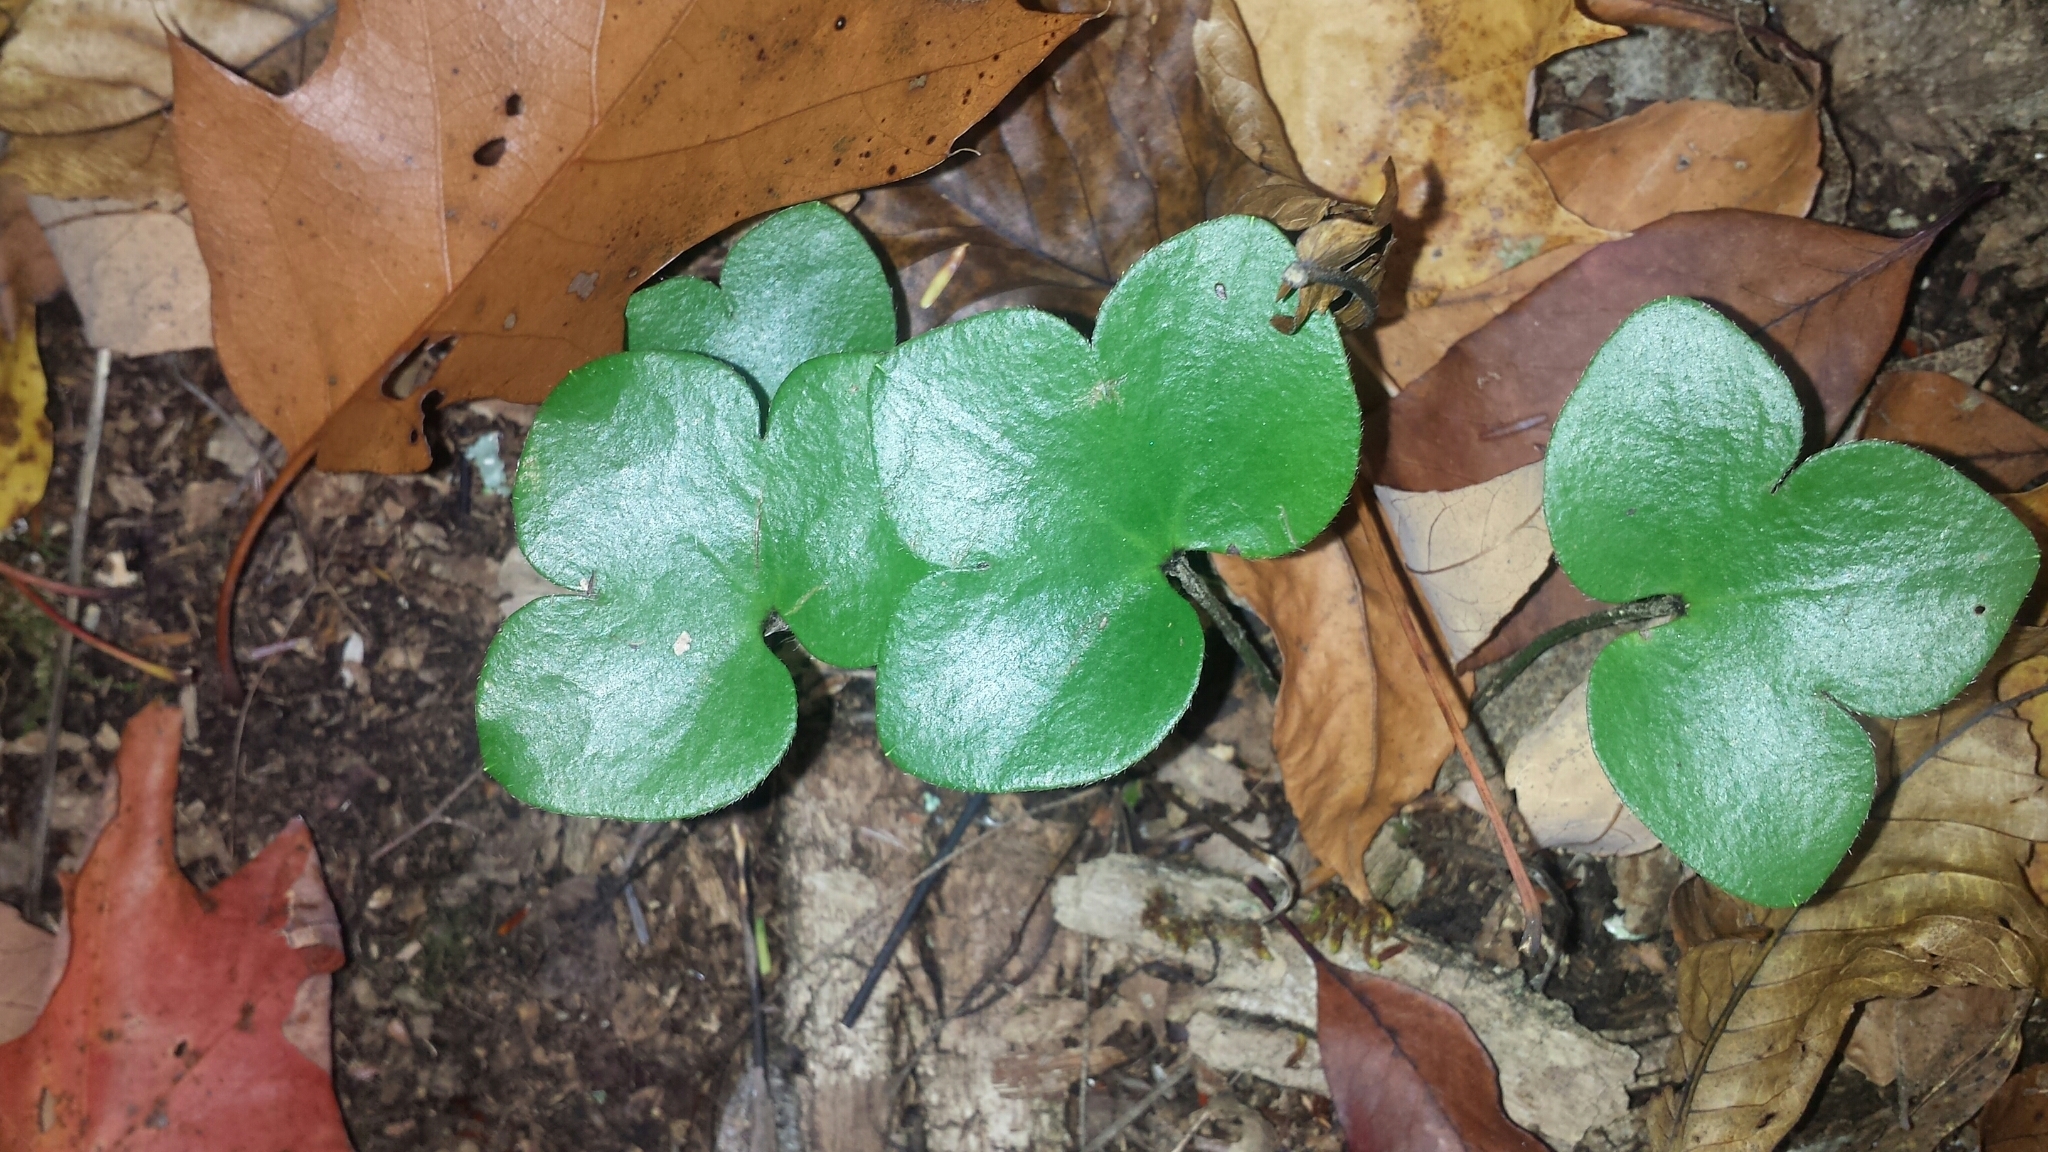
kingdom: Plantae
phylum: Tracheophyta
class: Magnoliopsida
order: Ranunculales
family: Ranunculaceae
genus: Hepatica
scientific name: Hepatica americana
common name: American hepatica
